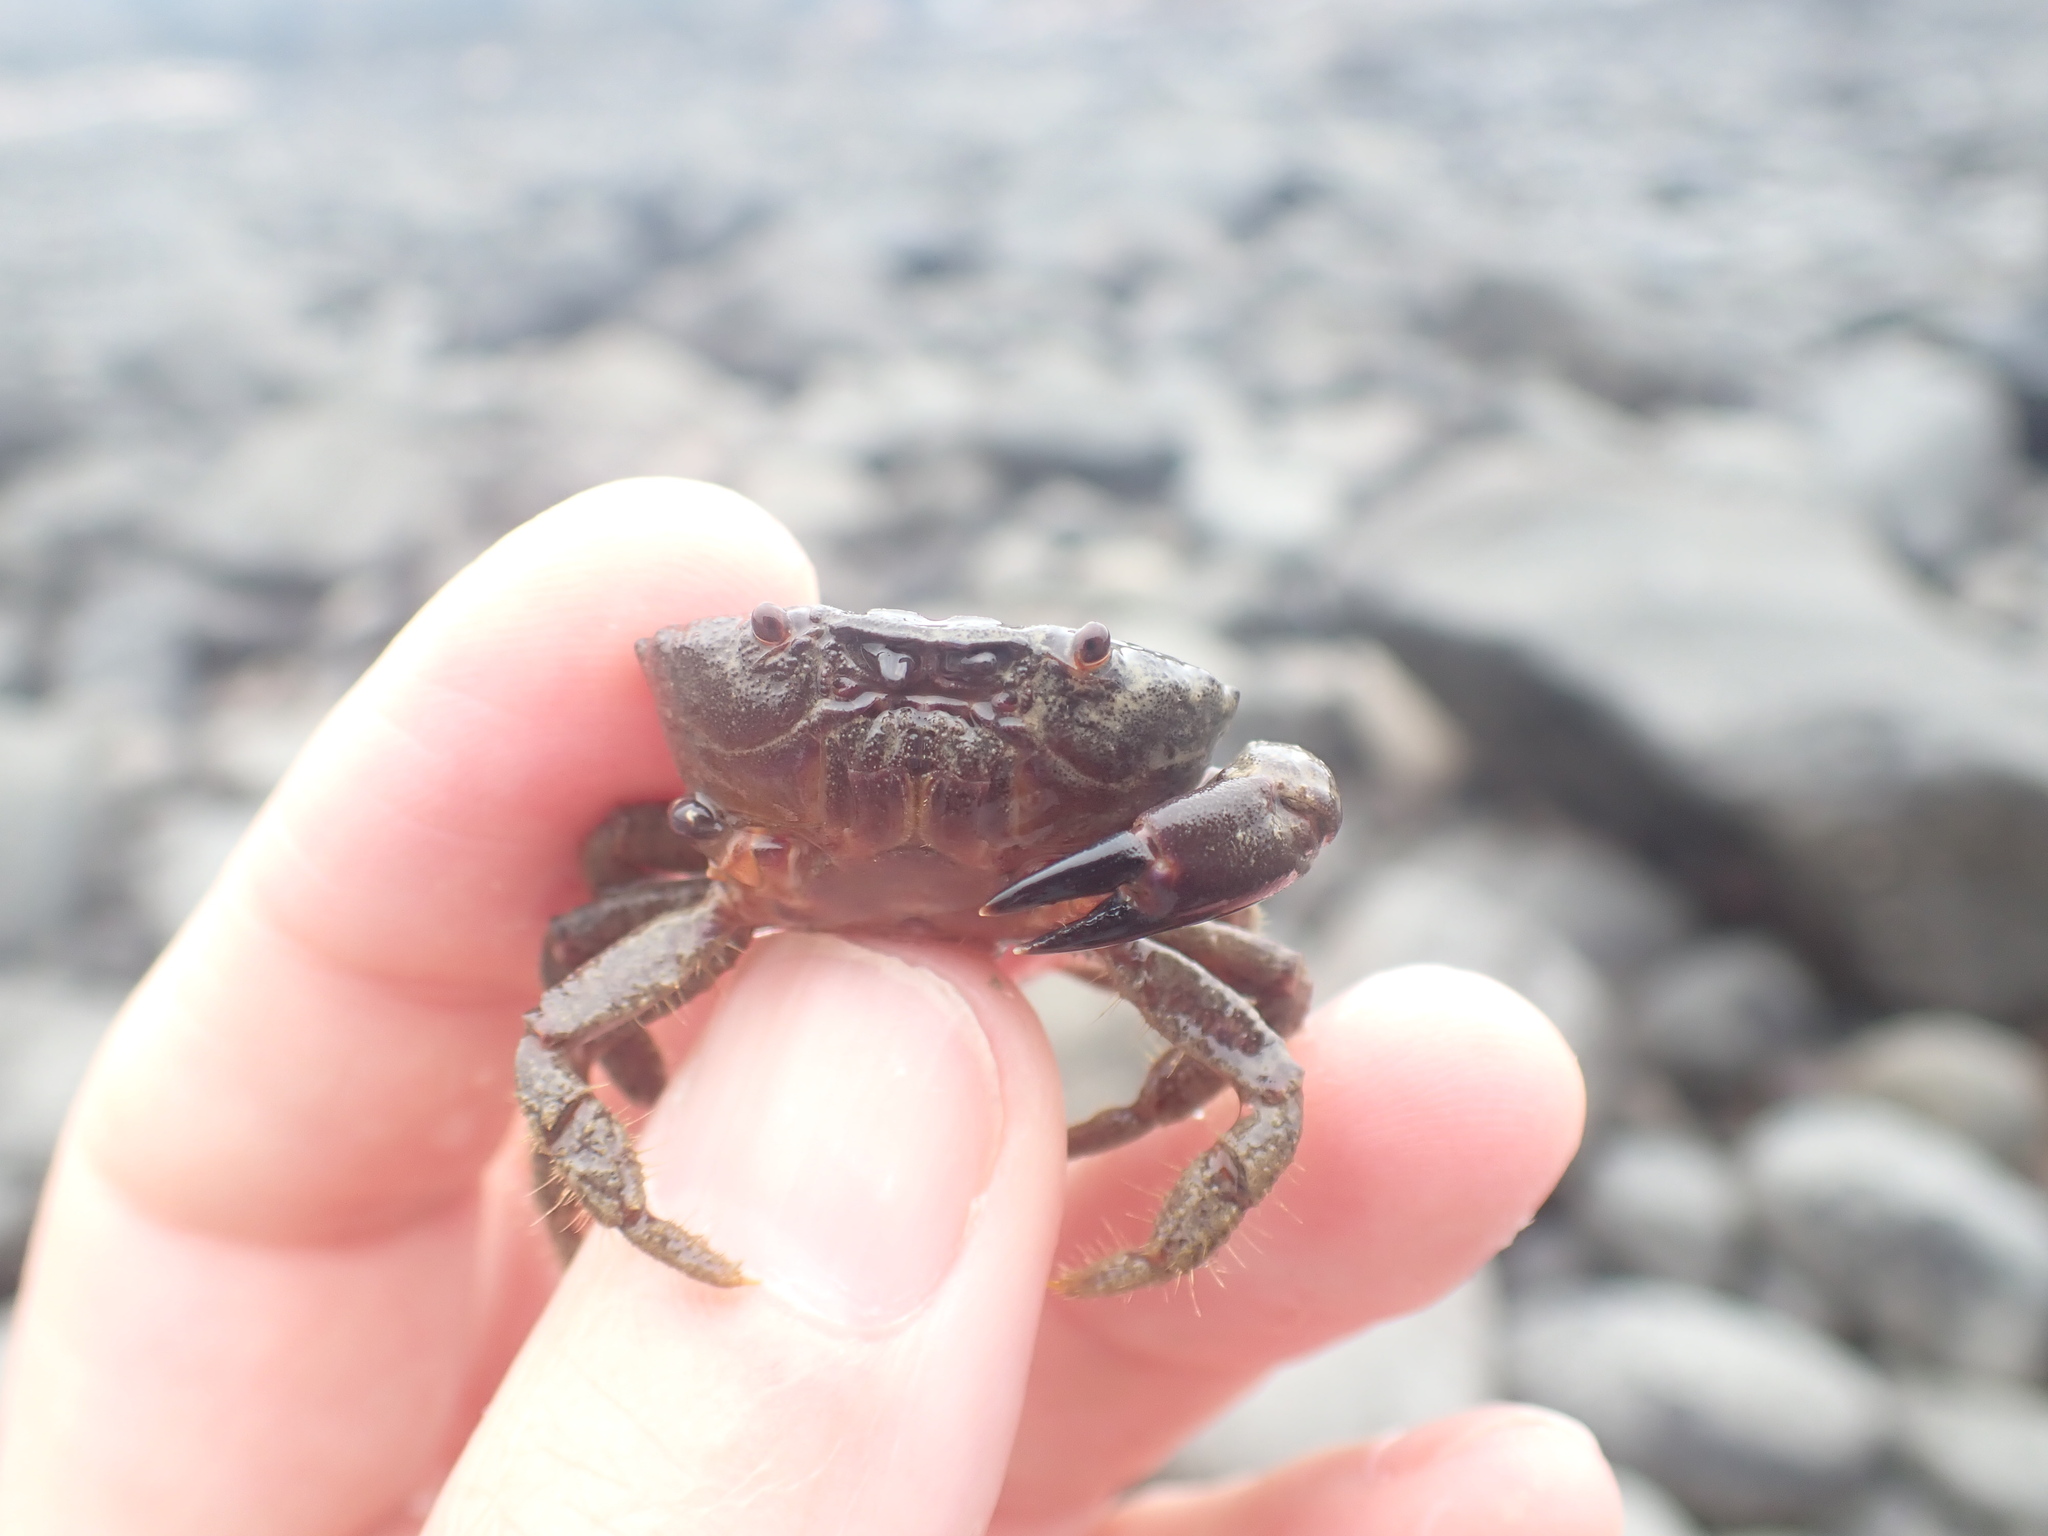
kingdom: Animalia
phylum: Arthropoda
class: Malacostraca
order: Decapoda
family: Oziidae
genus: Ozius
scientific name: Ozius deplanatus
